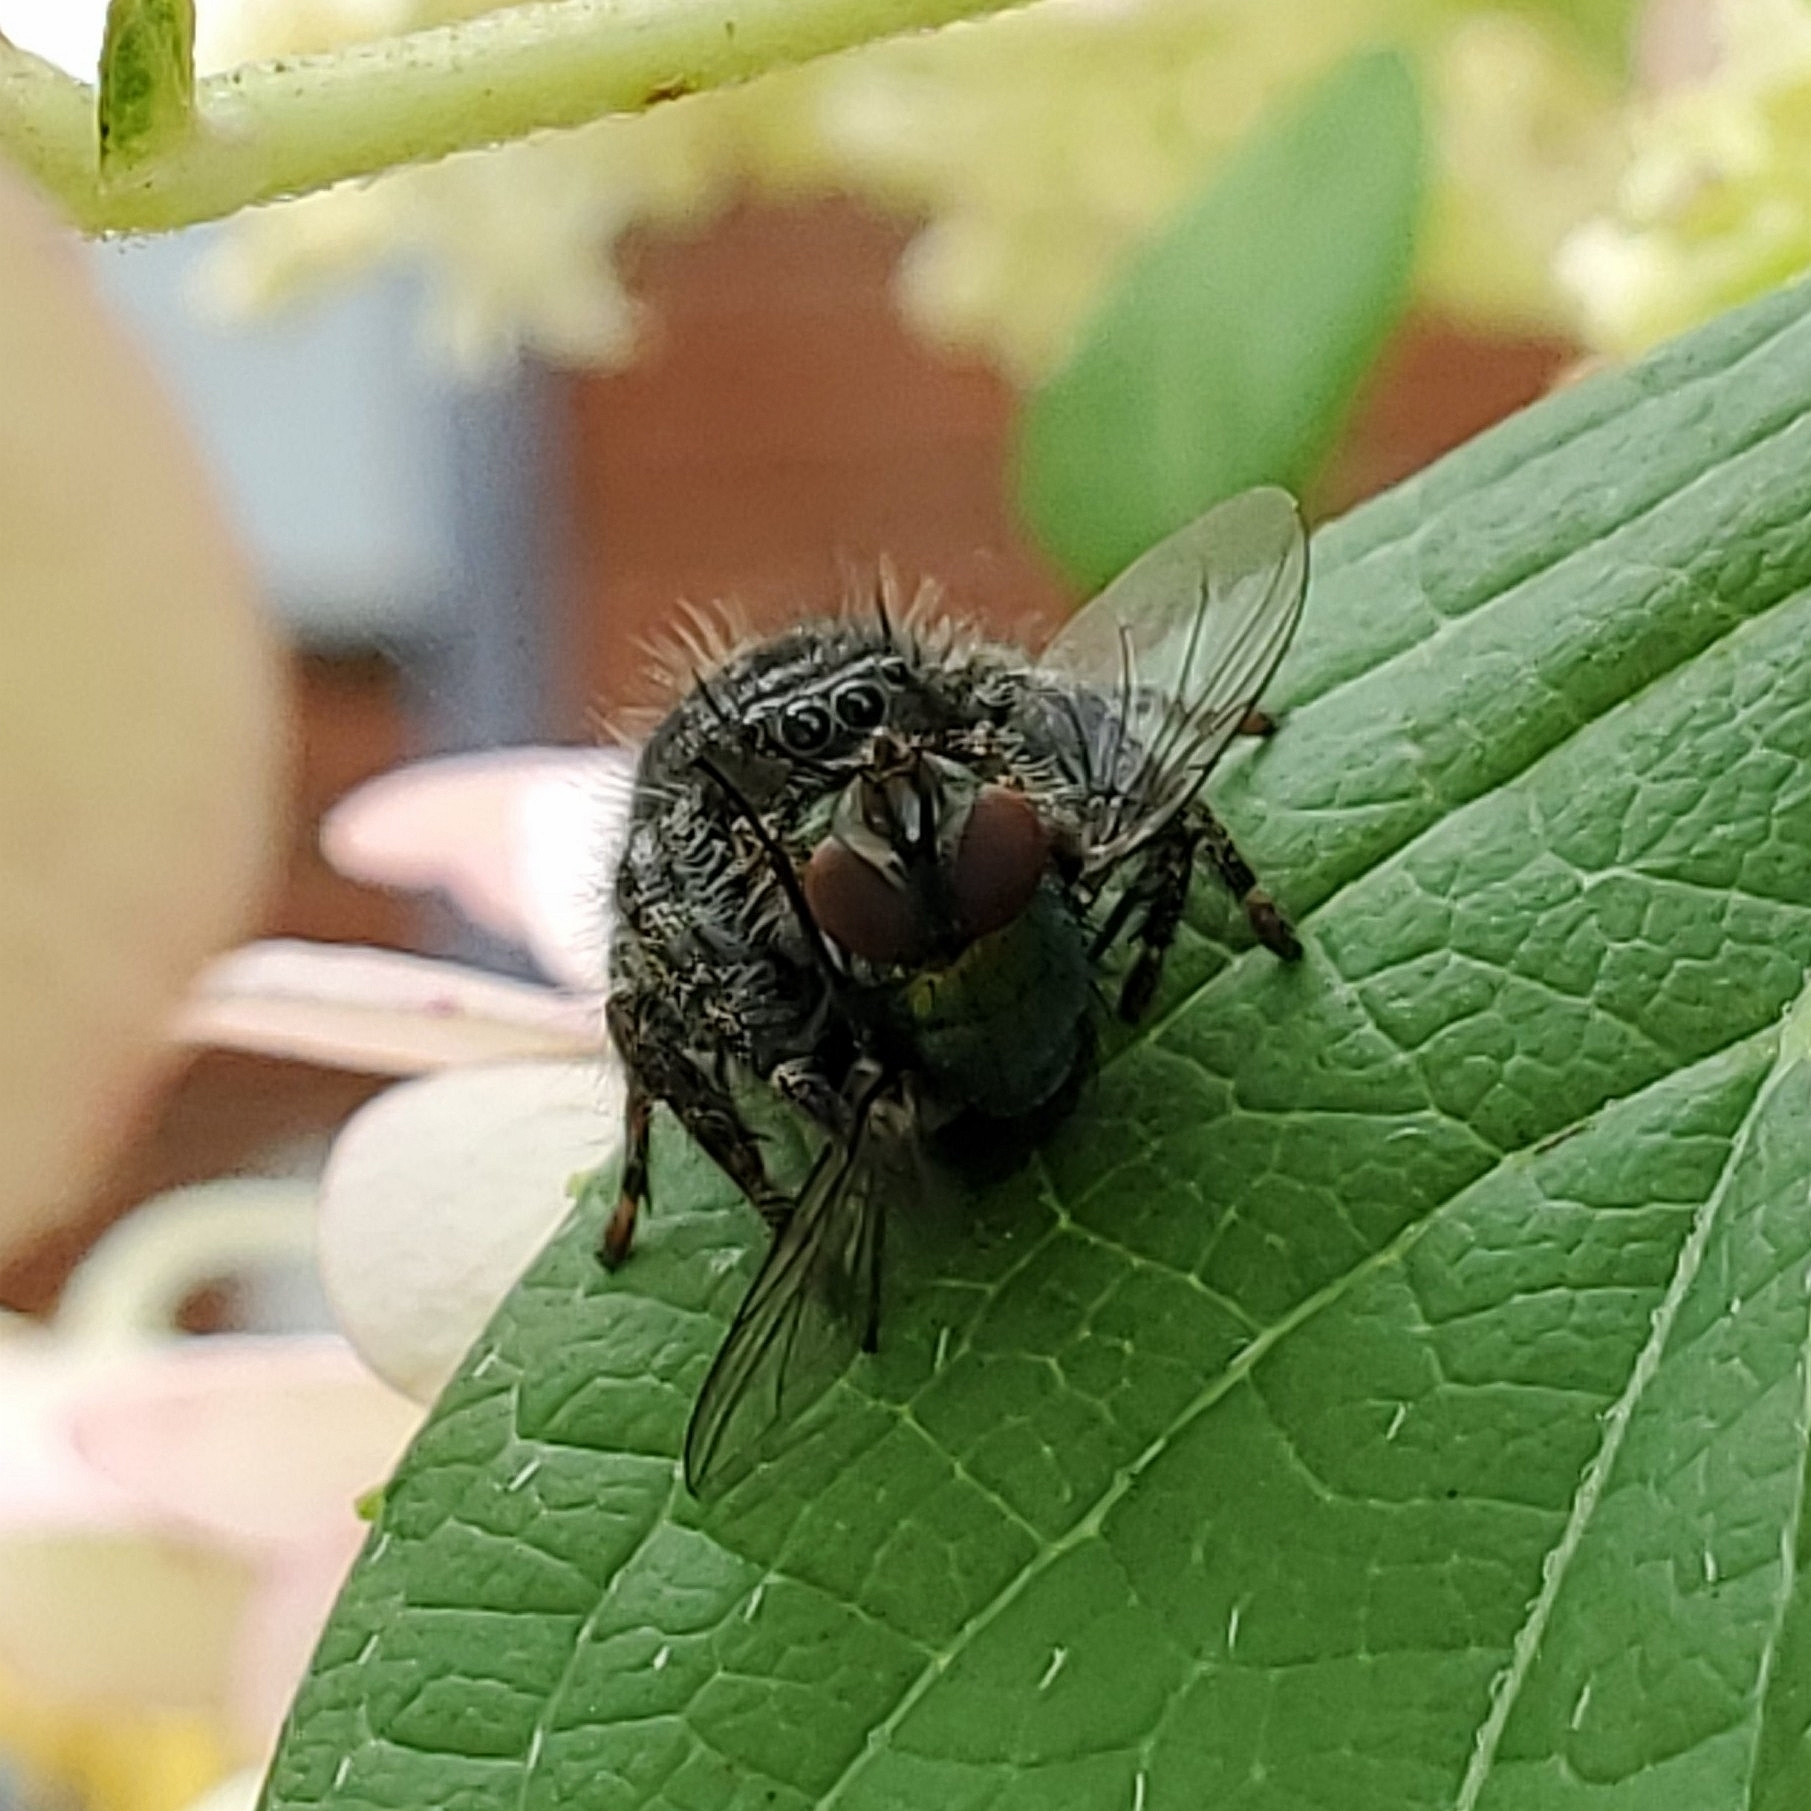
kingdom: Animalia
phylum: Arthropoda
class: Arachnida
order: Araneae
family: Salticidae
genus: Phidippus
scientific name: Phidippus audax
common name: Bold jumper
